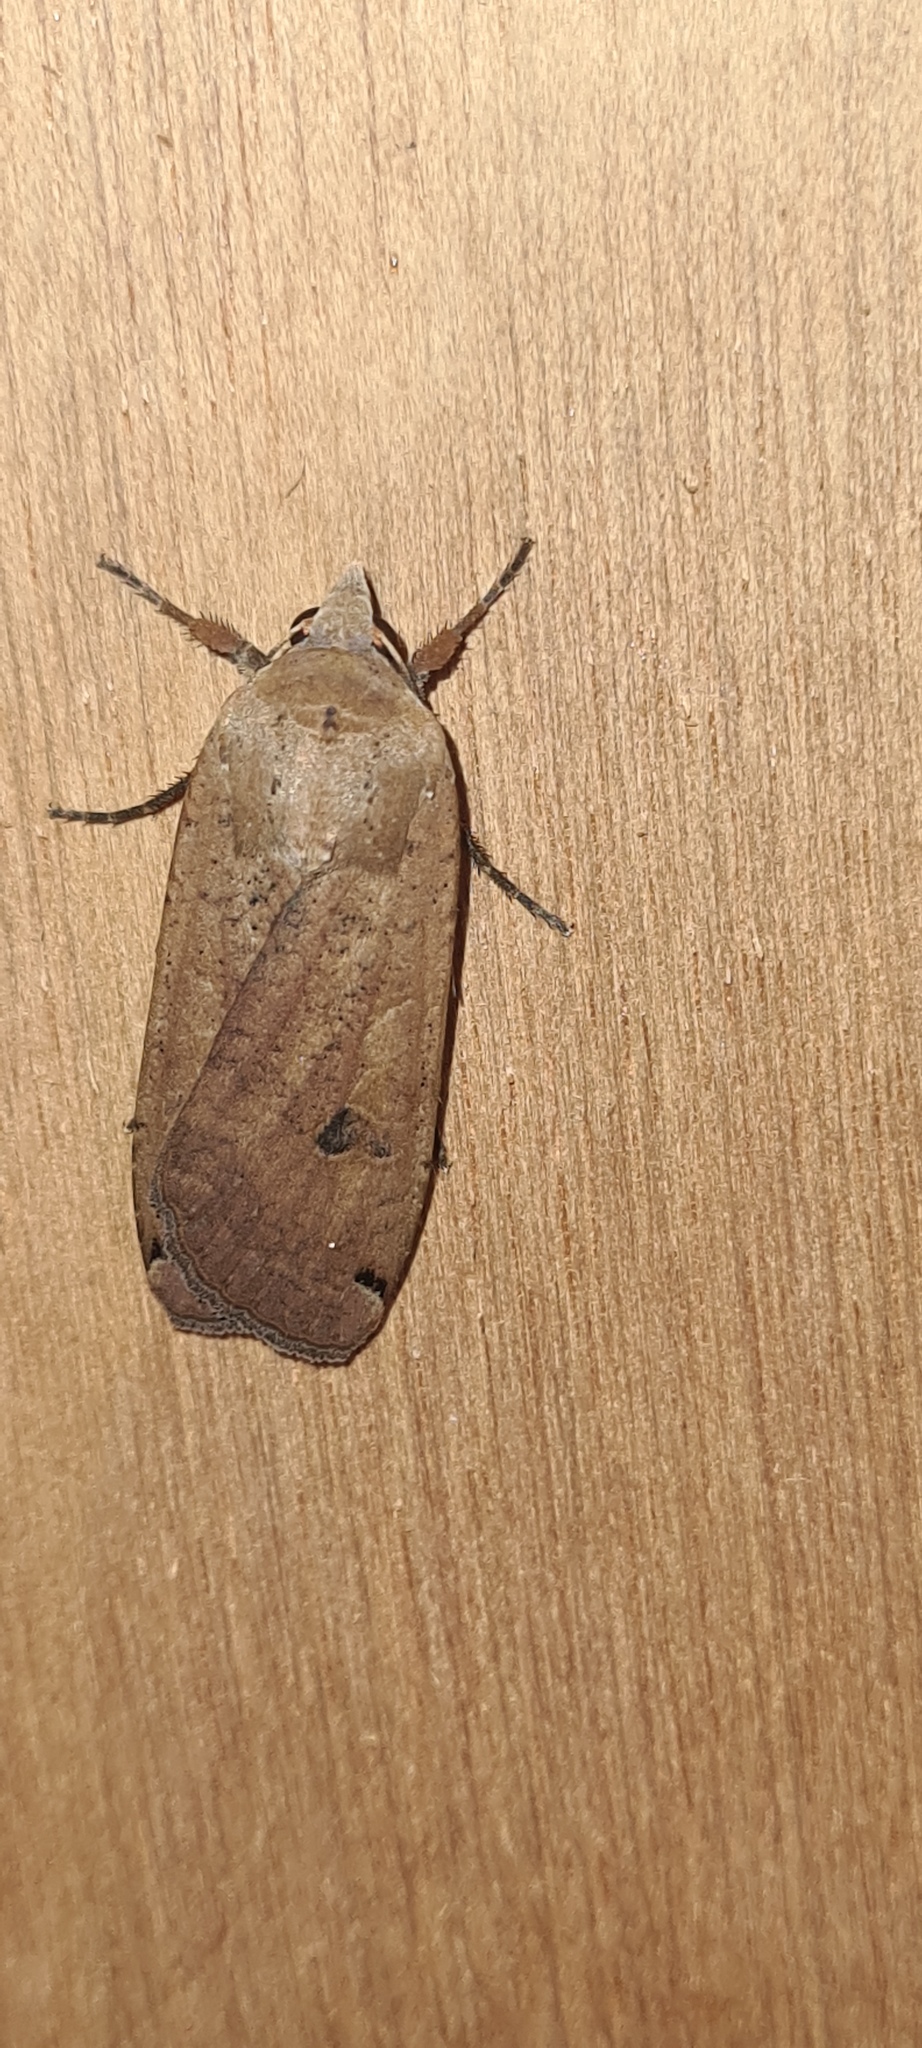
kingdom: Animalia
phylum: Arthropoda
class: Insecta
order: Lepidoptera
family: Noctuidae
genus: Noctua
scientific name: Noctua pronuba
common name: Large yellow underwing
